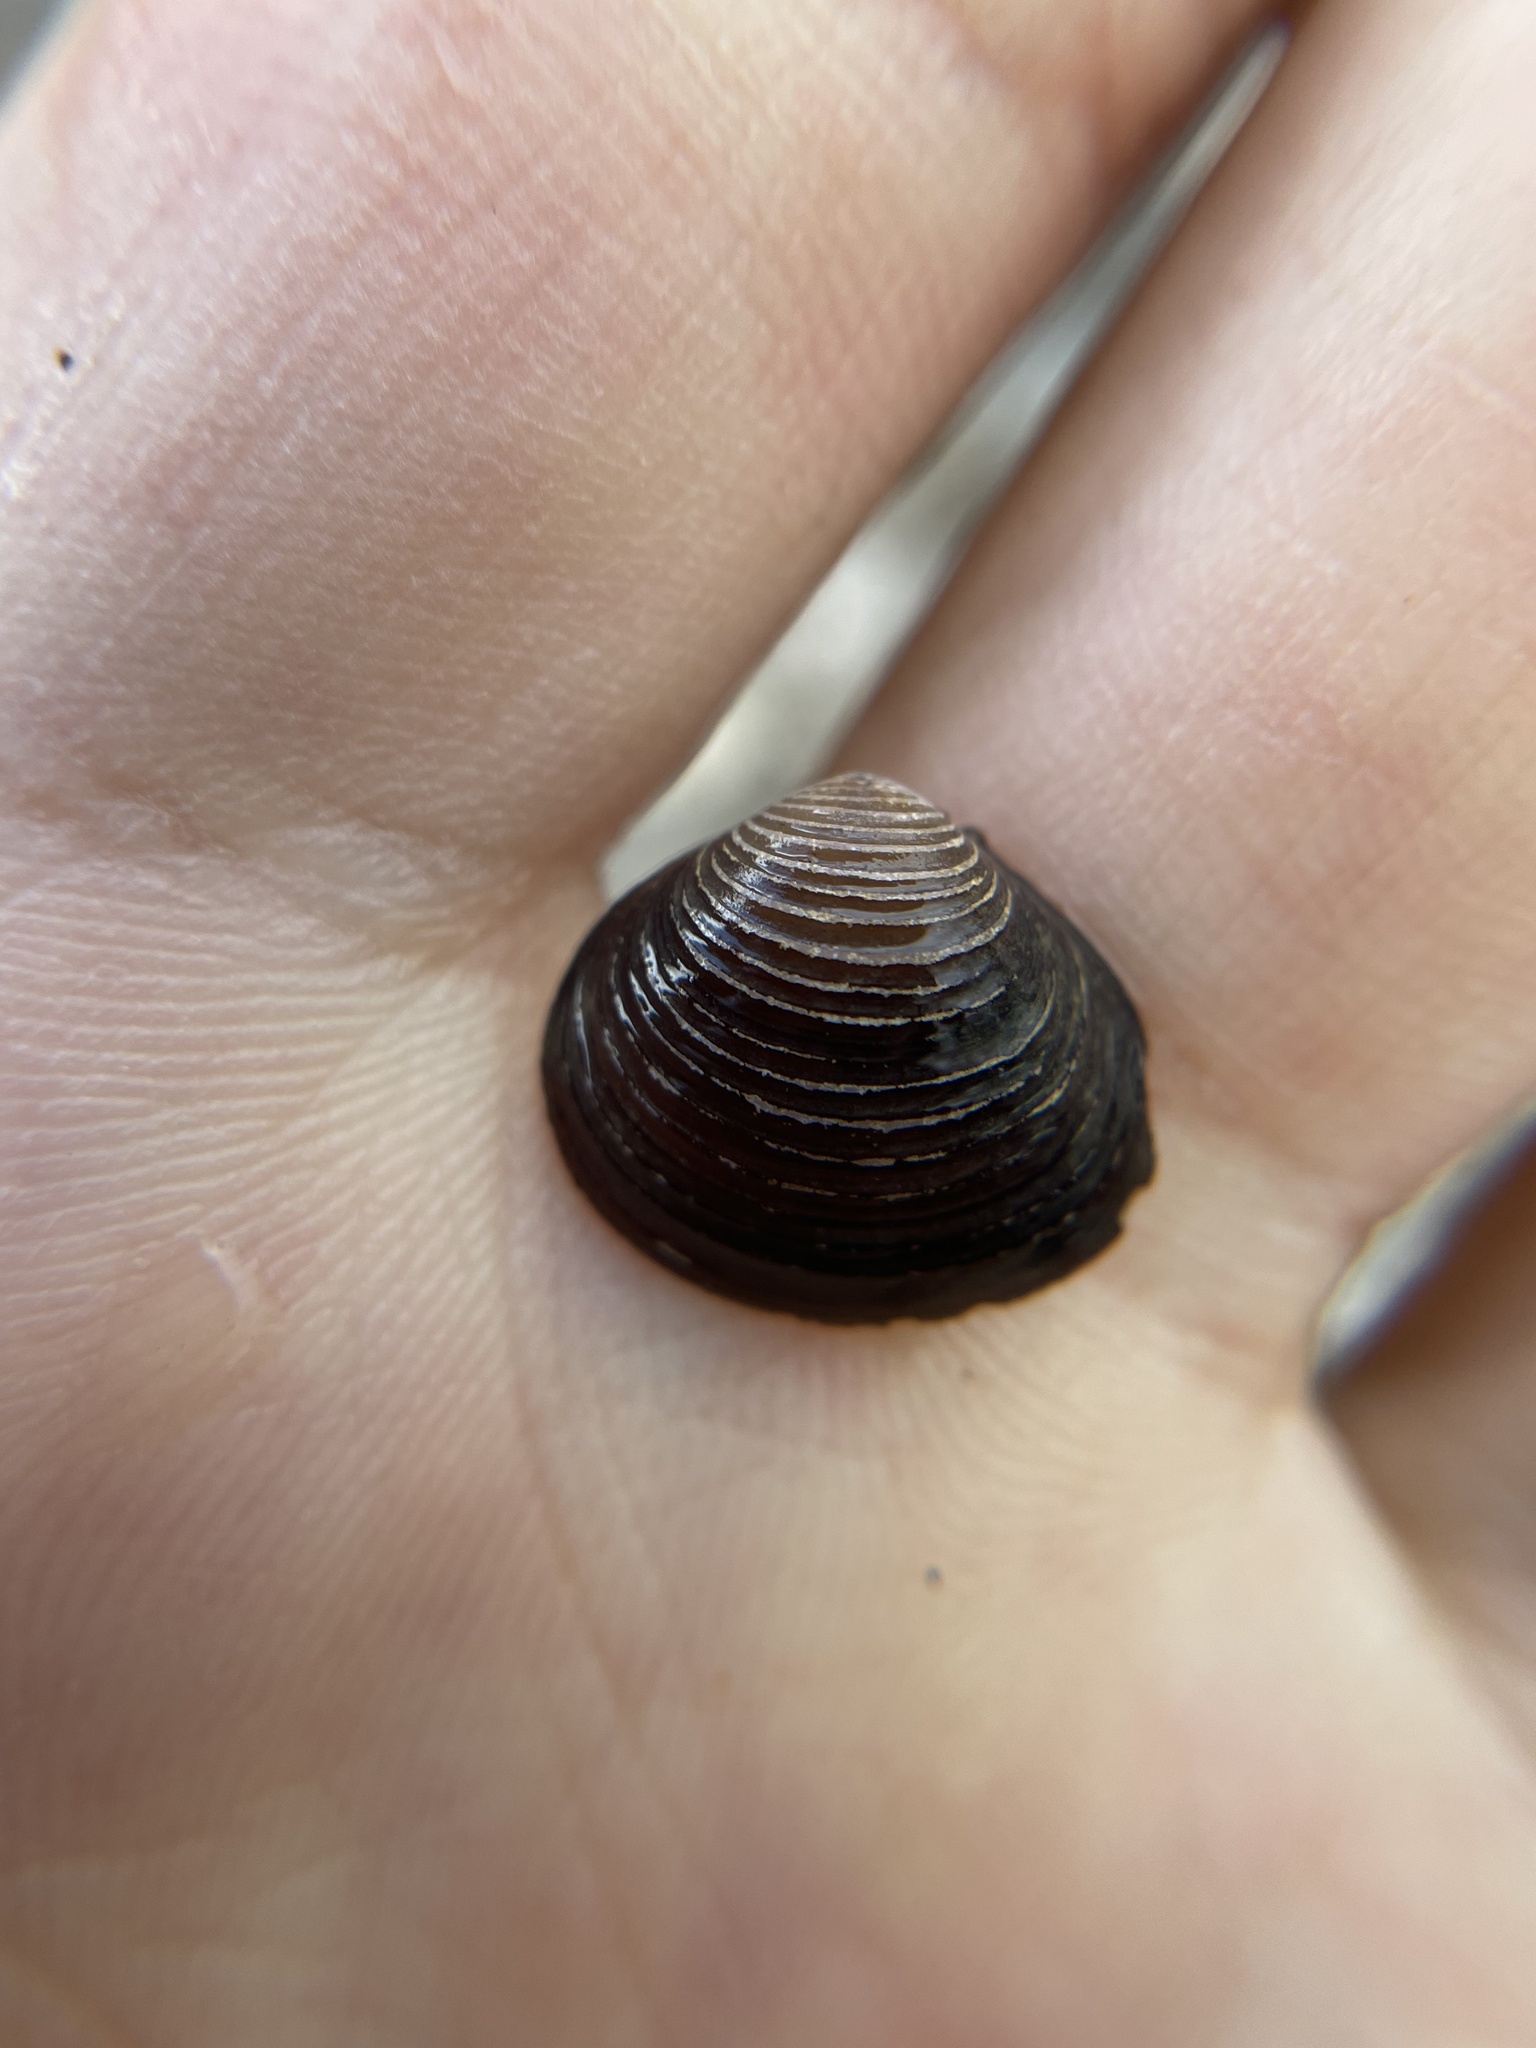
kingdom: Animalia
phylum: Mollusca
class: Bivalvia
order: Venerida
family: Cyrenidae
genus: Corbicula
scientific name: Corbicula fluminea
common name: Asian clam
